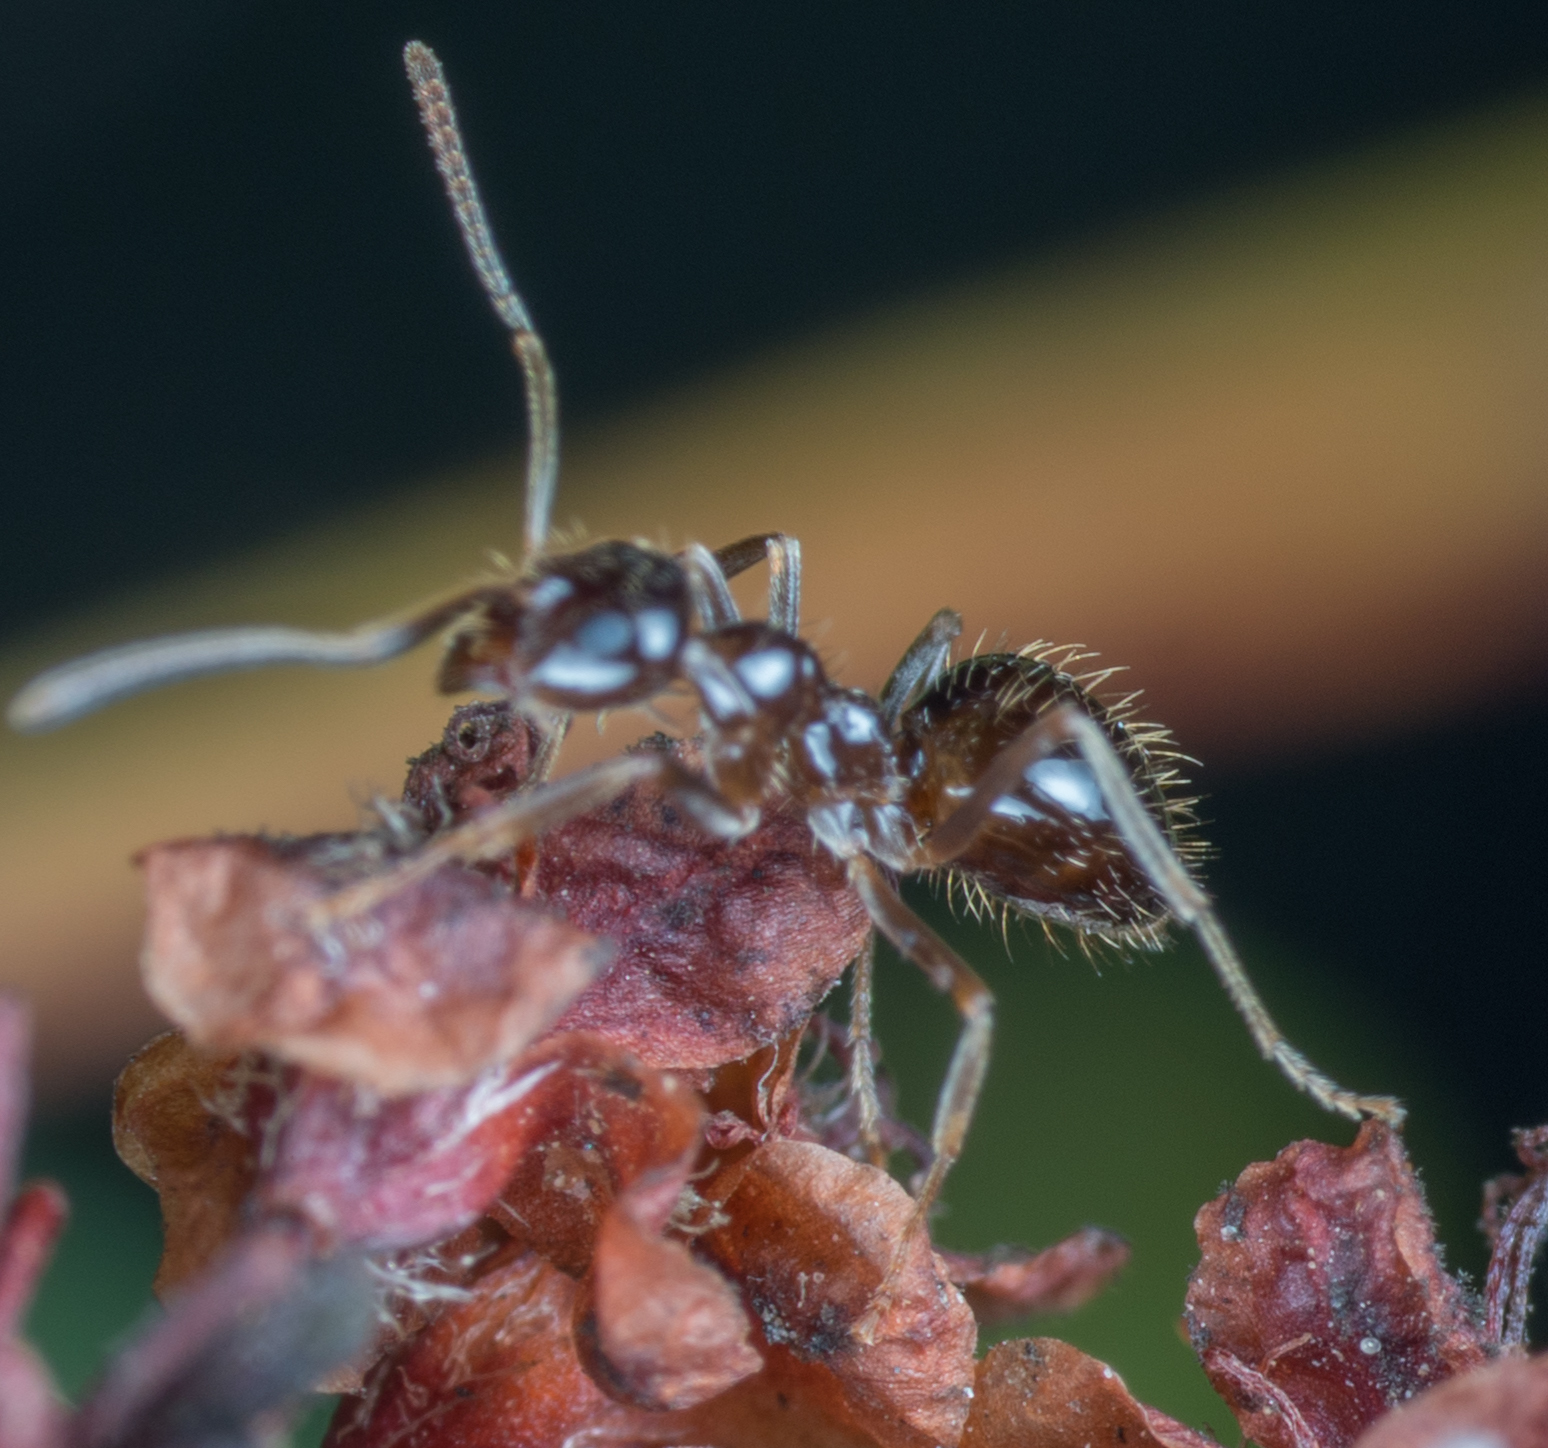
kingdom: Animalia
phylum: Arthropoda
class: Insecta
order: Hymenoptera
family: Formicidae
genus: Prenolepis
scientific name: Prenolepis imparis
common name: Small honey ant
